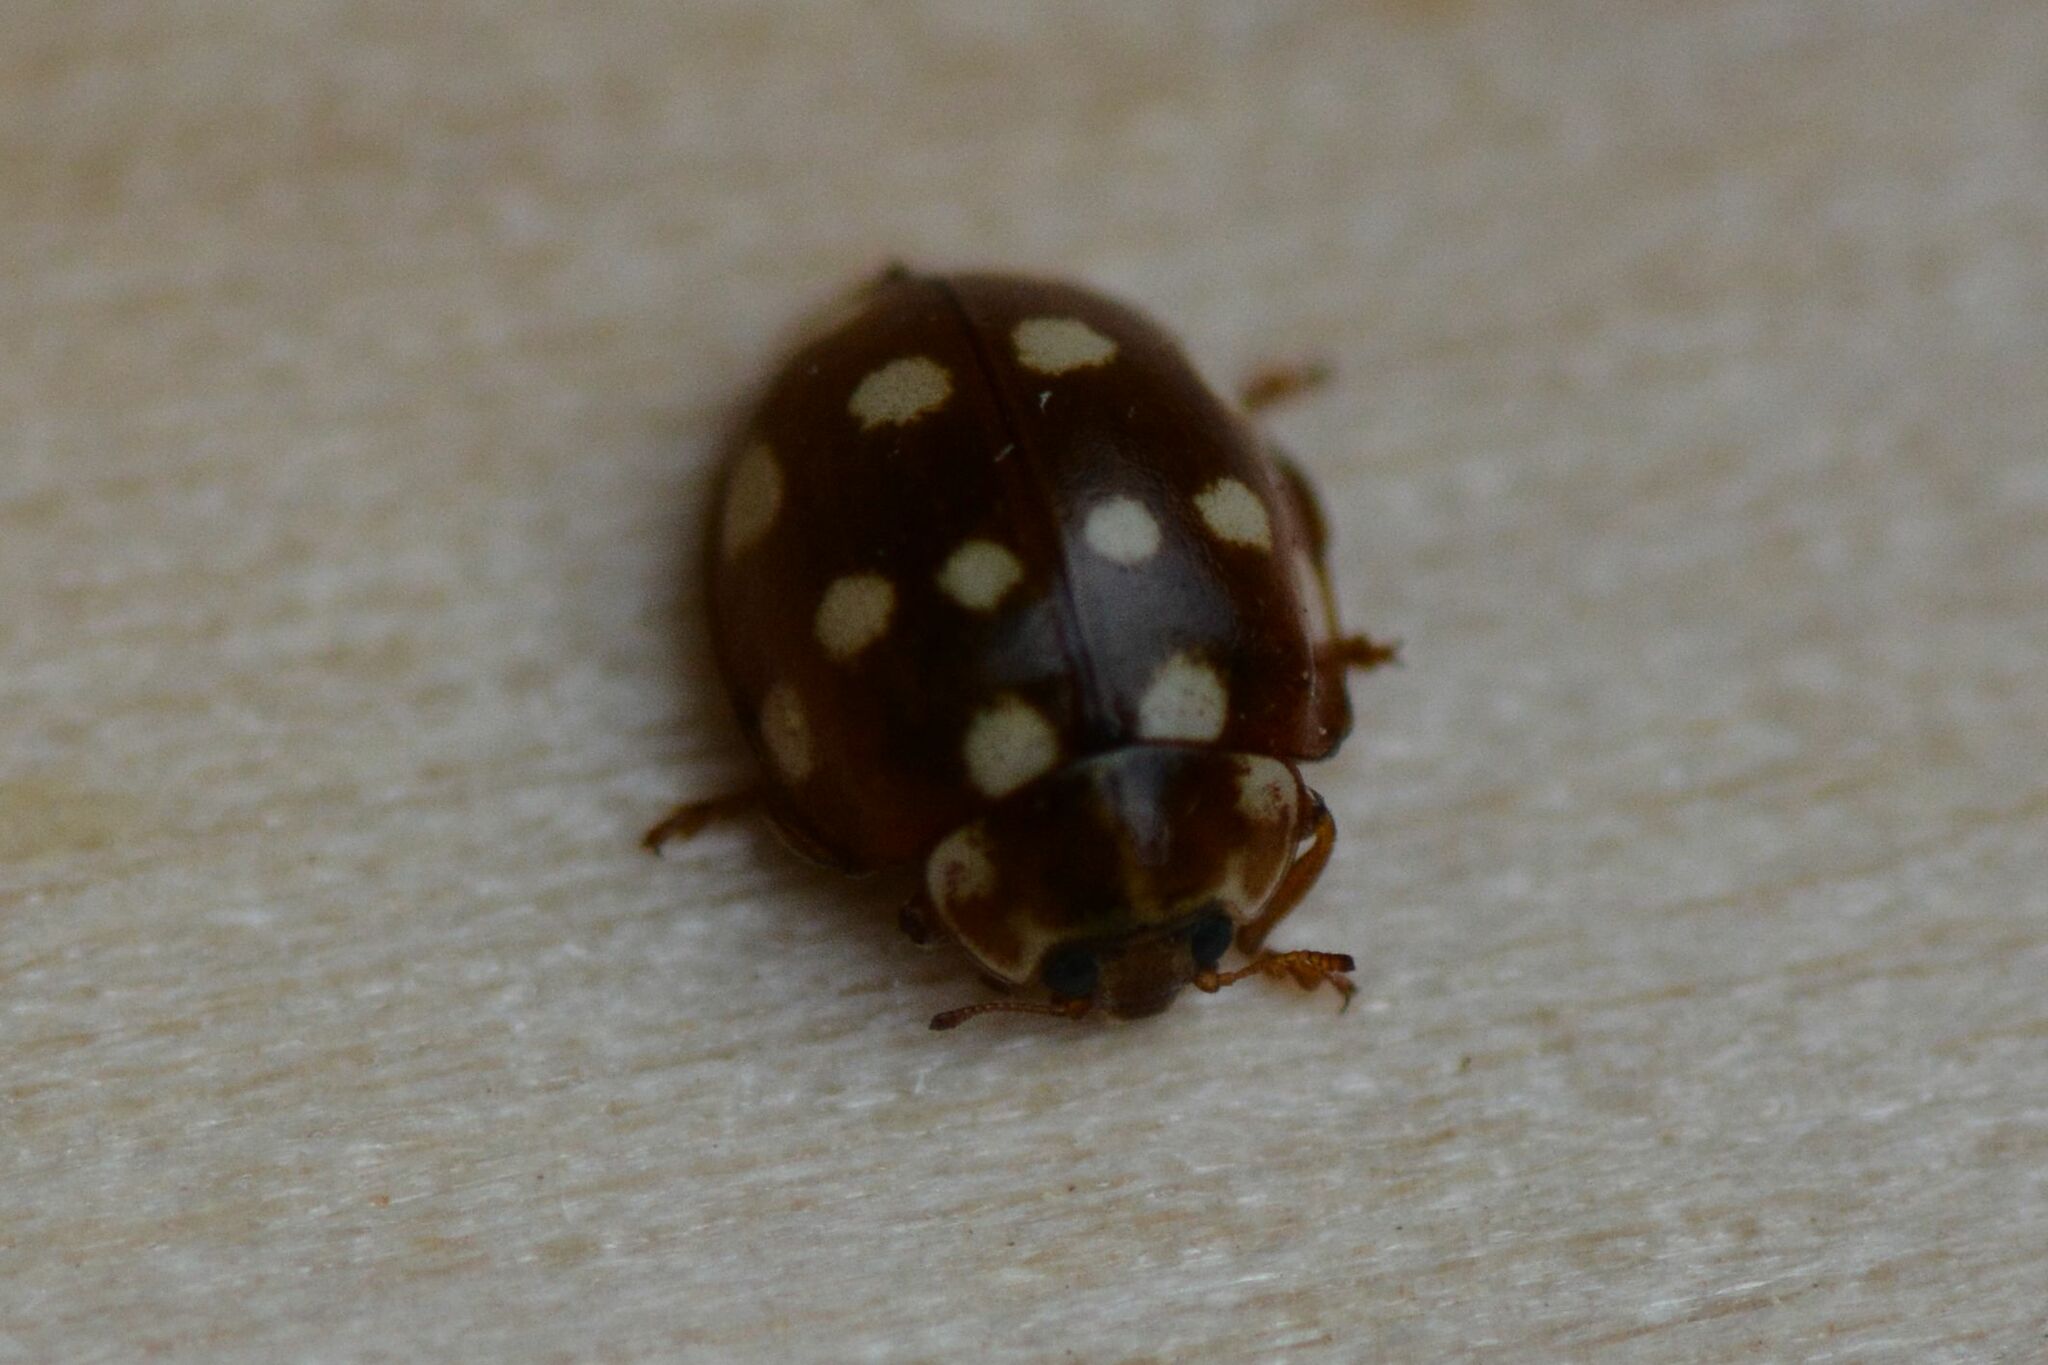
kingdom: Animalia
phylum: Arthropoda
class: Insecta
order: Coleoptera
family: Coccinellidae
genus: Calvia
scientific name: Calvia quatuordecimguttata
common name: Cream-spot ladybird
